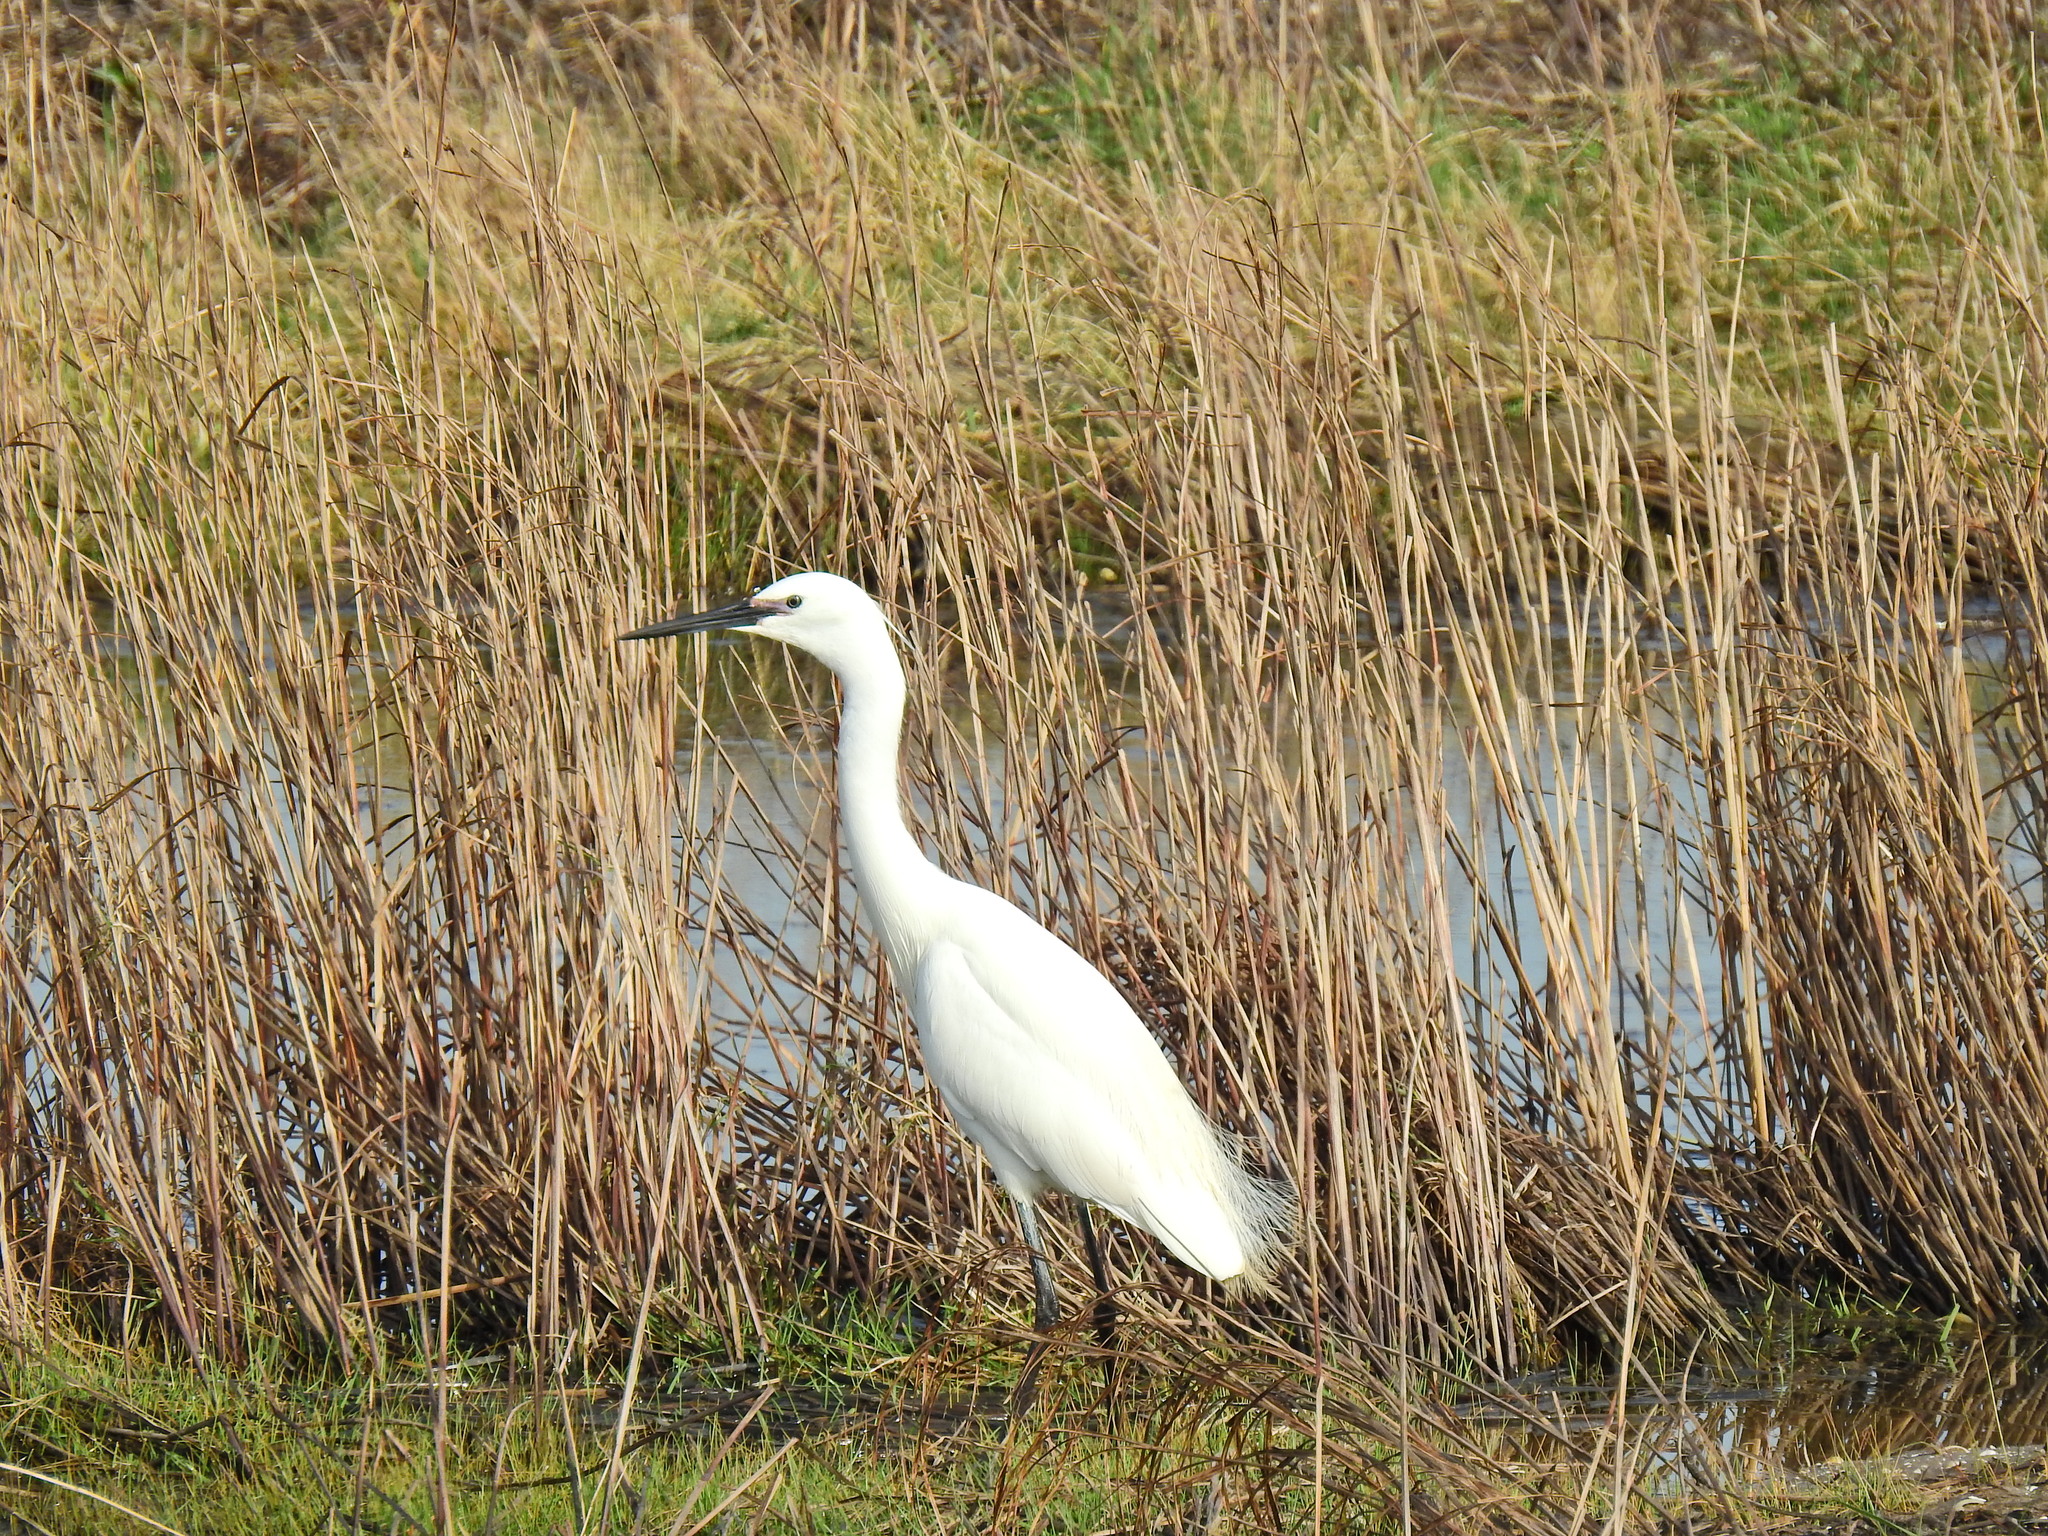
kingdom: Animalia
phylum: Chordata
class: Aves
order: Pelecaniformes
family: Ardeidae
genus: Egretta
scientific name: Egretta garzetta
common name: Little egret
